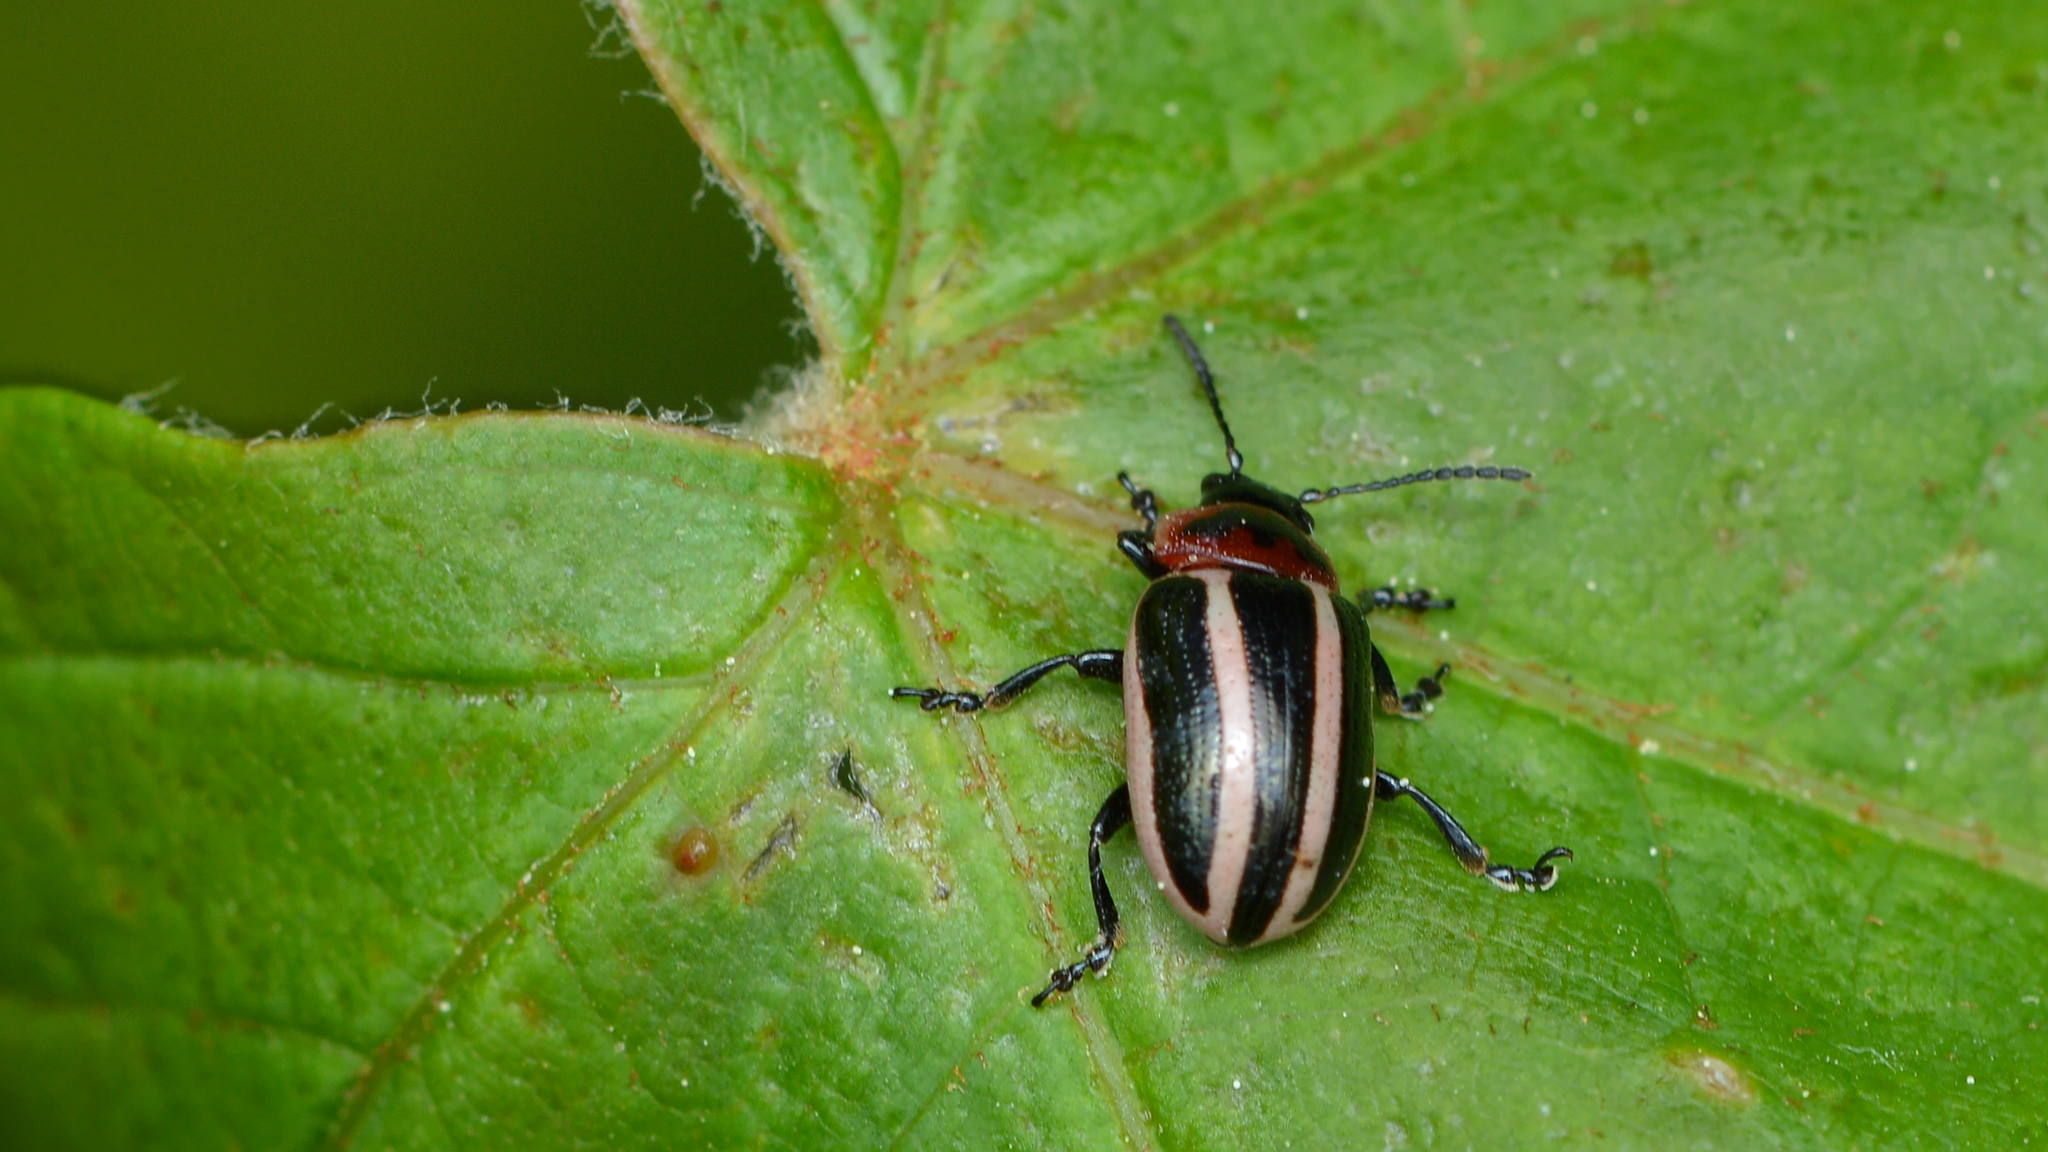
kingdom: Animalia
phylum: Arthropoda
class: Insecta
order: Coleoptera
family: Chrysomelidae
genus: Calligrapha
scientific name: Calligrapha californica
